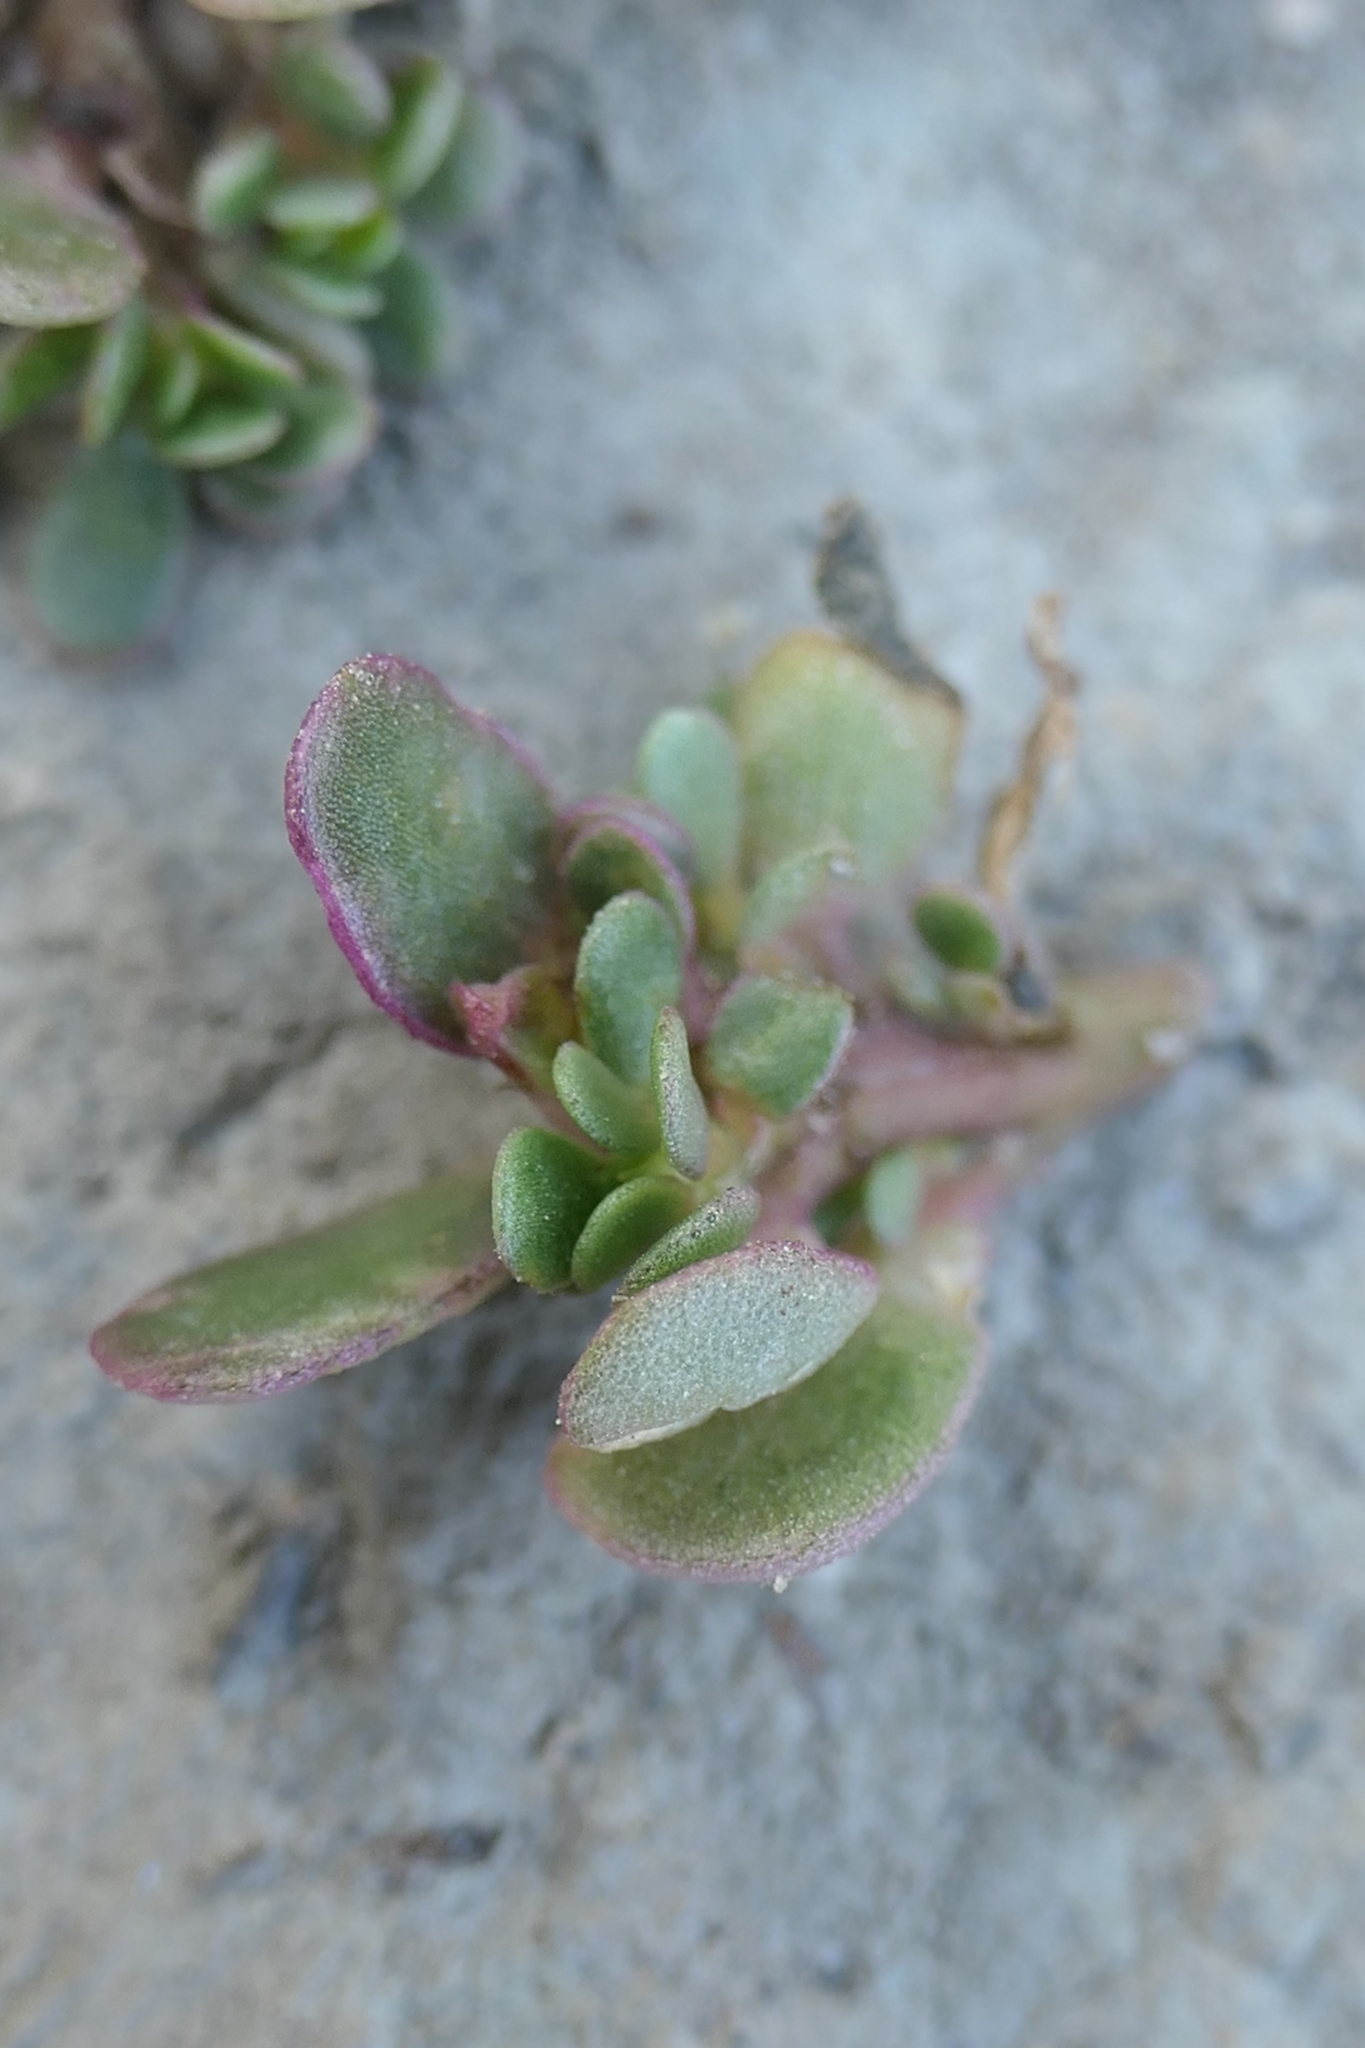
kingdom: Plantae
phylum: Tracheophyta
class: Magnoliopsida
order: Caryophyllales
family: Portulacaceae
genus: Portulaca
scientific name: Portulaca oleracea
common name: Common purslane
